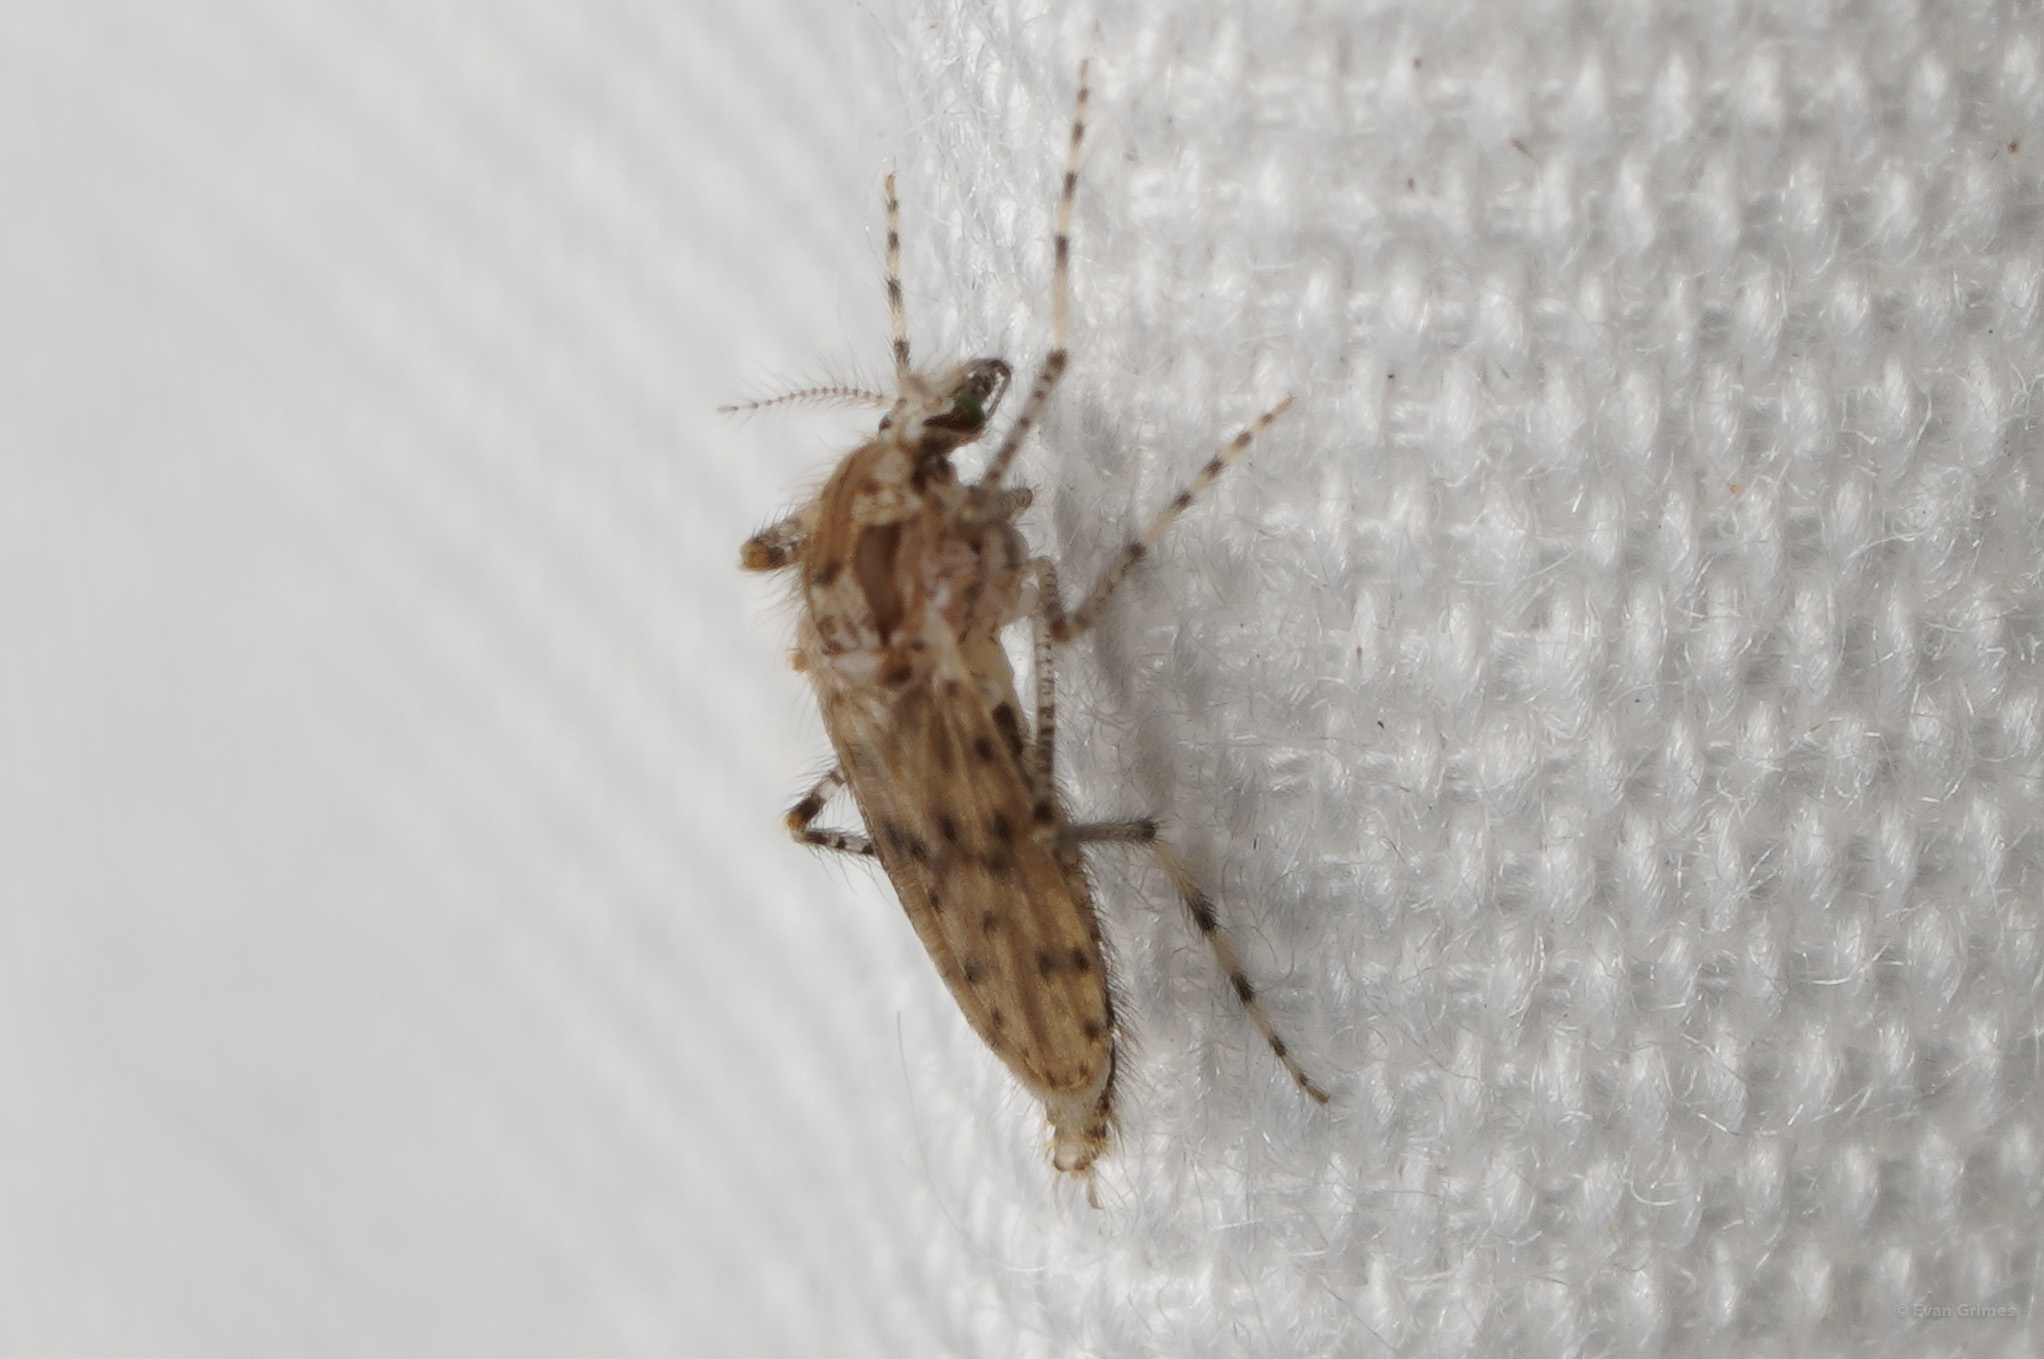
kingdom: Animalia
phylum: Arthropoda
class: Insecta
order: Diptera
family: Chaoboridae
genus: Chaoborus
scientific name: Chaoborus punctipennis
